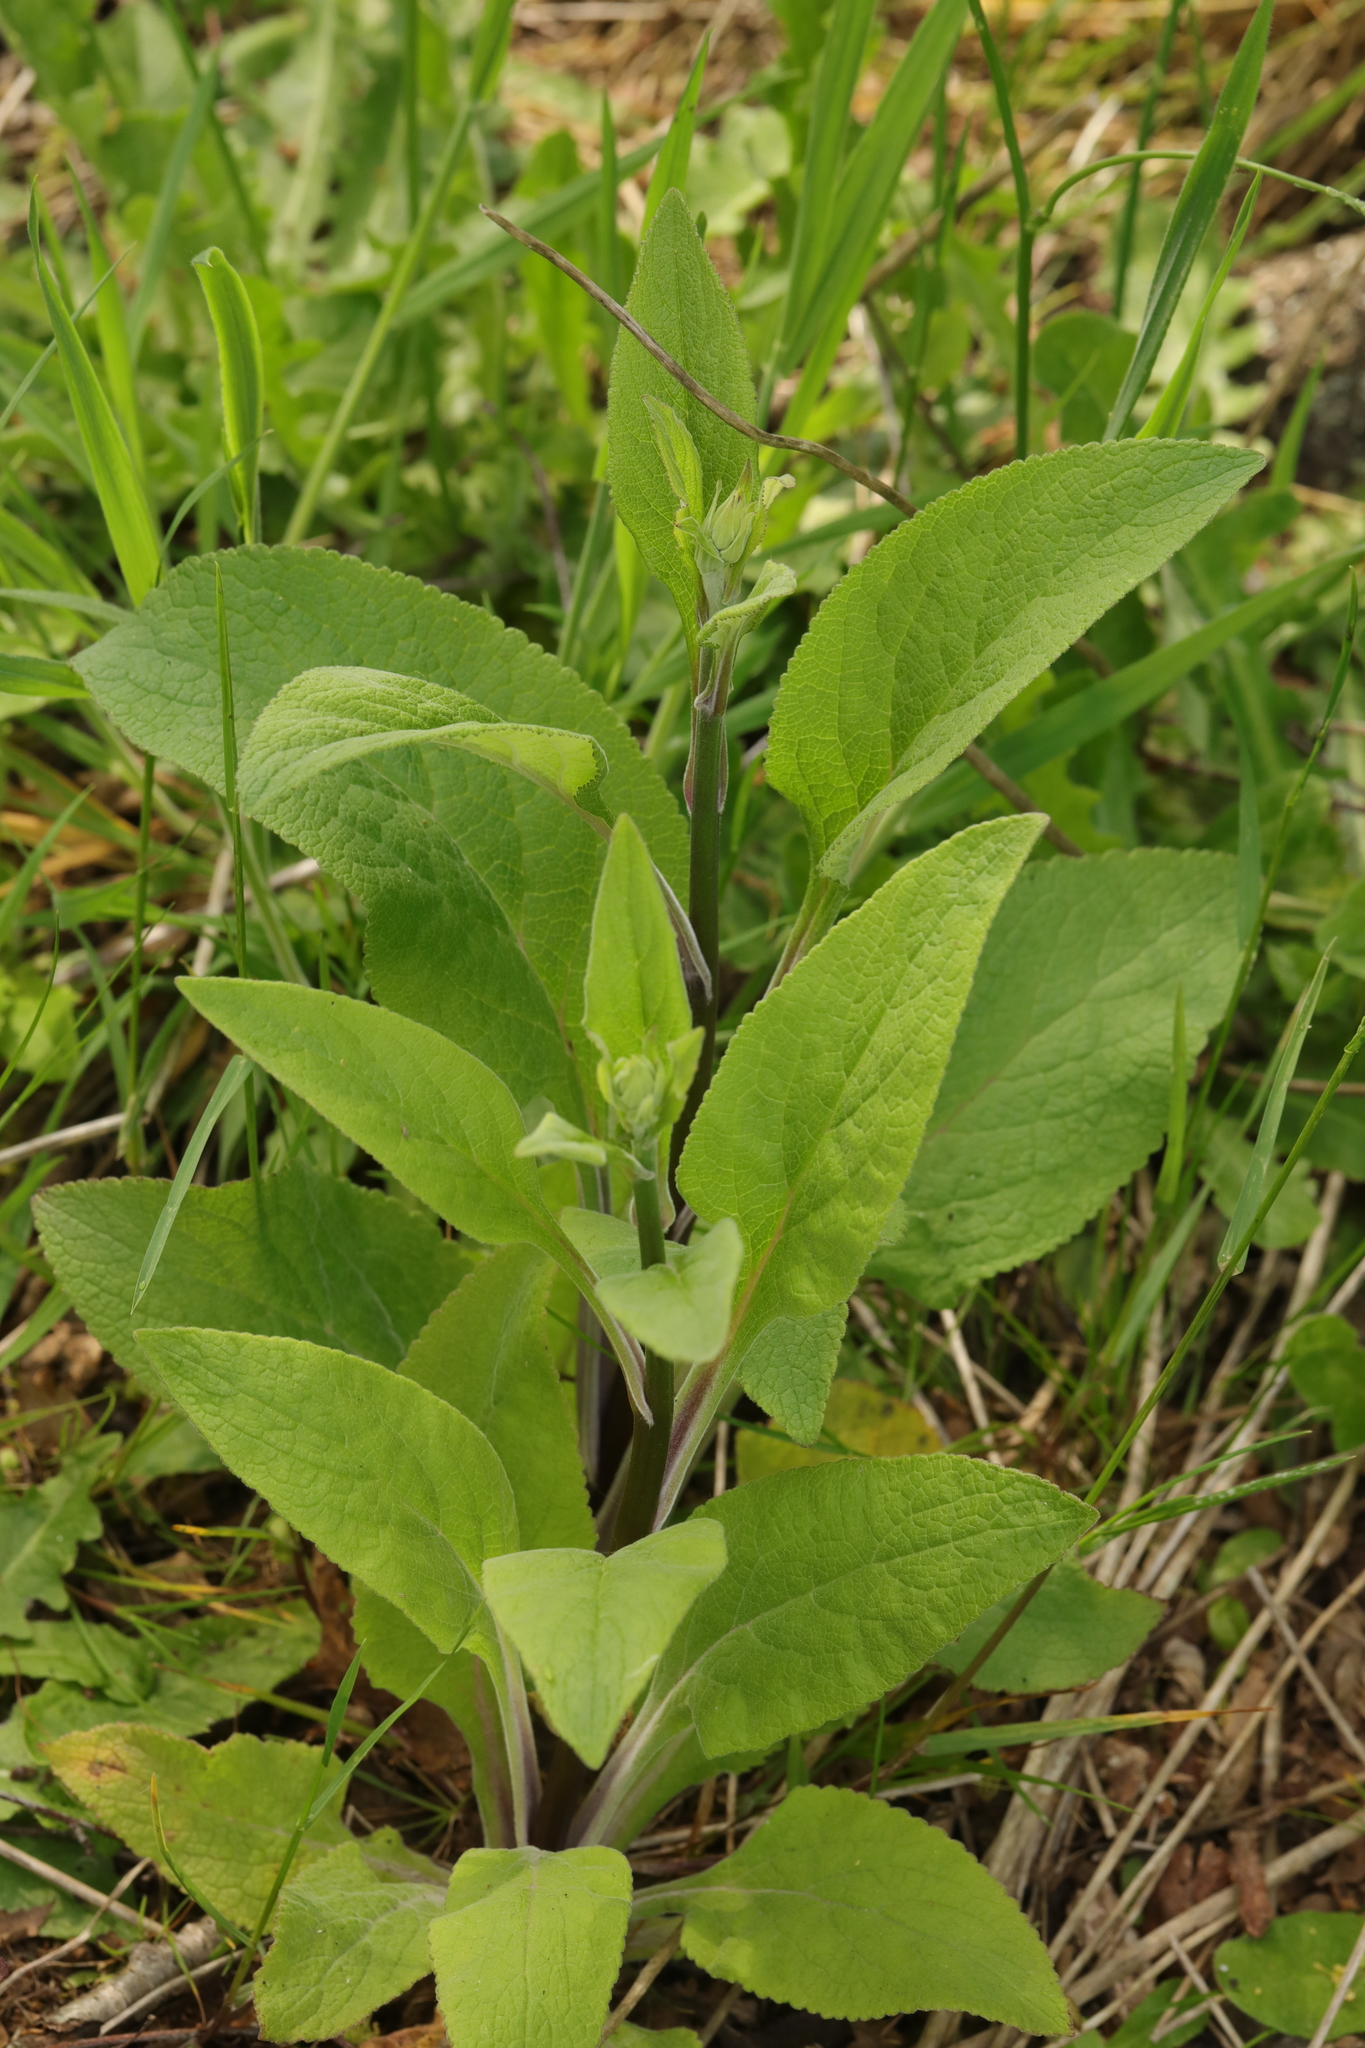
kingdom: Plantae
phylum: Tracheophyta
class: Magnoliopsida
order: Lamiales
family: Plantaginaceae
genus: Digitalis
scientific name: Digitalis purpurea
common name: Foxglove
